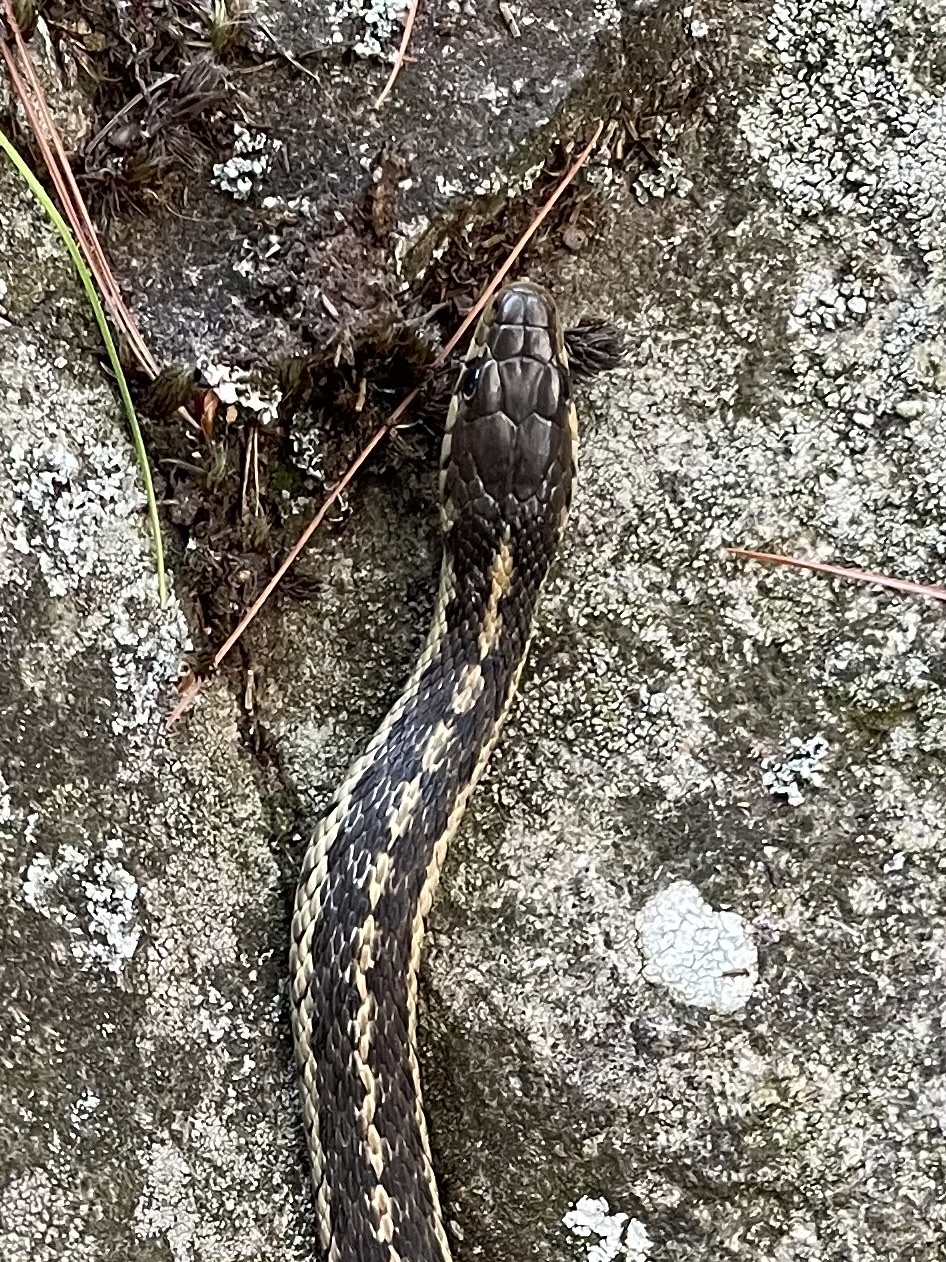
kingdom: Animalia
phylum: Chordata
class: Squamata
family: Colubridae
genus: Thamnophis
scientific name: Thamnophis sirtalis
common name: Common garter snake
